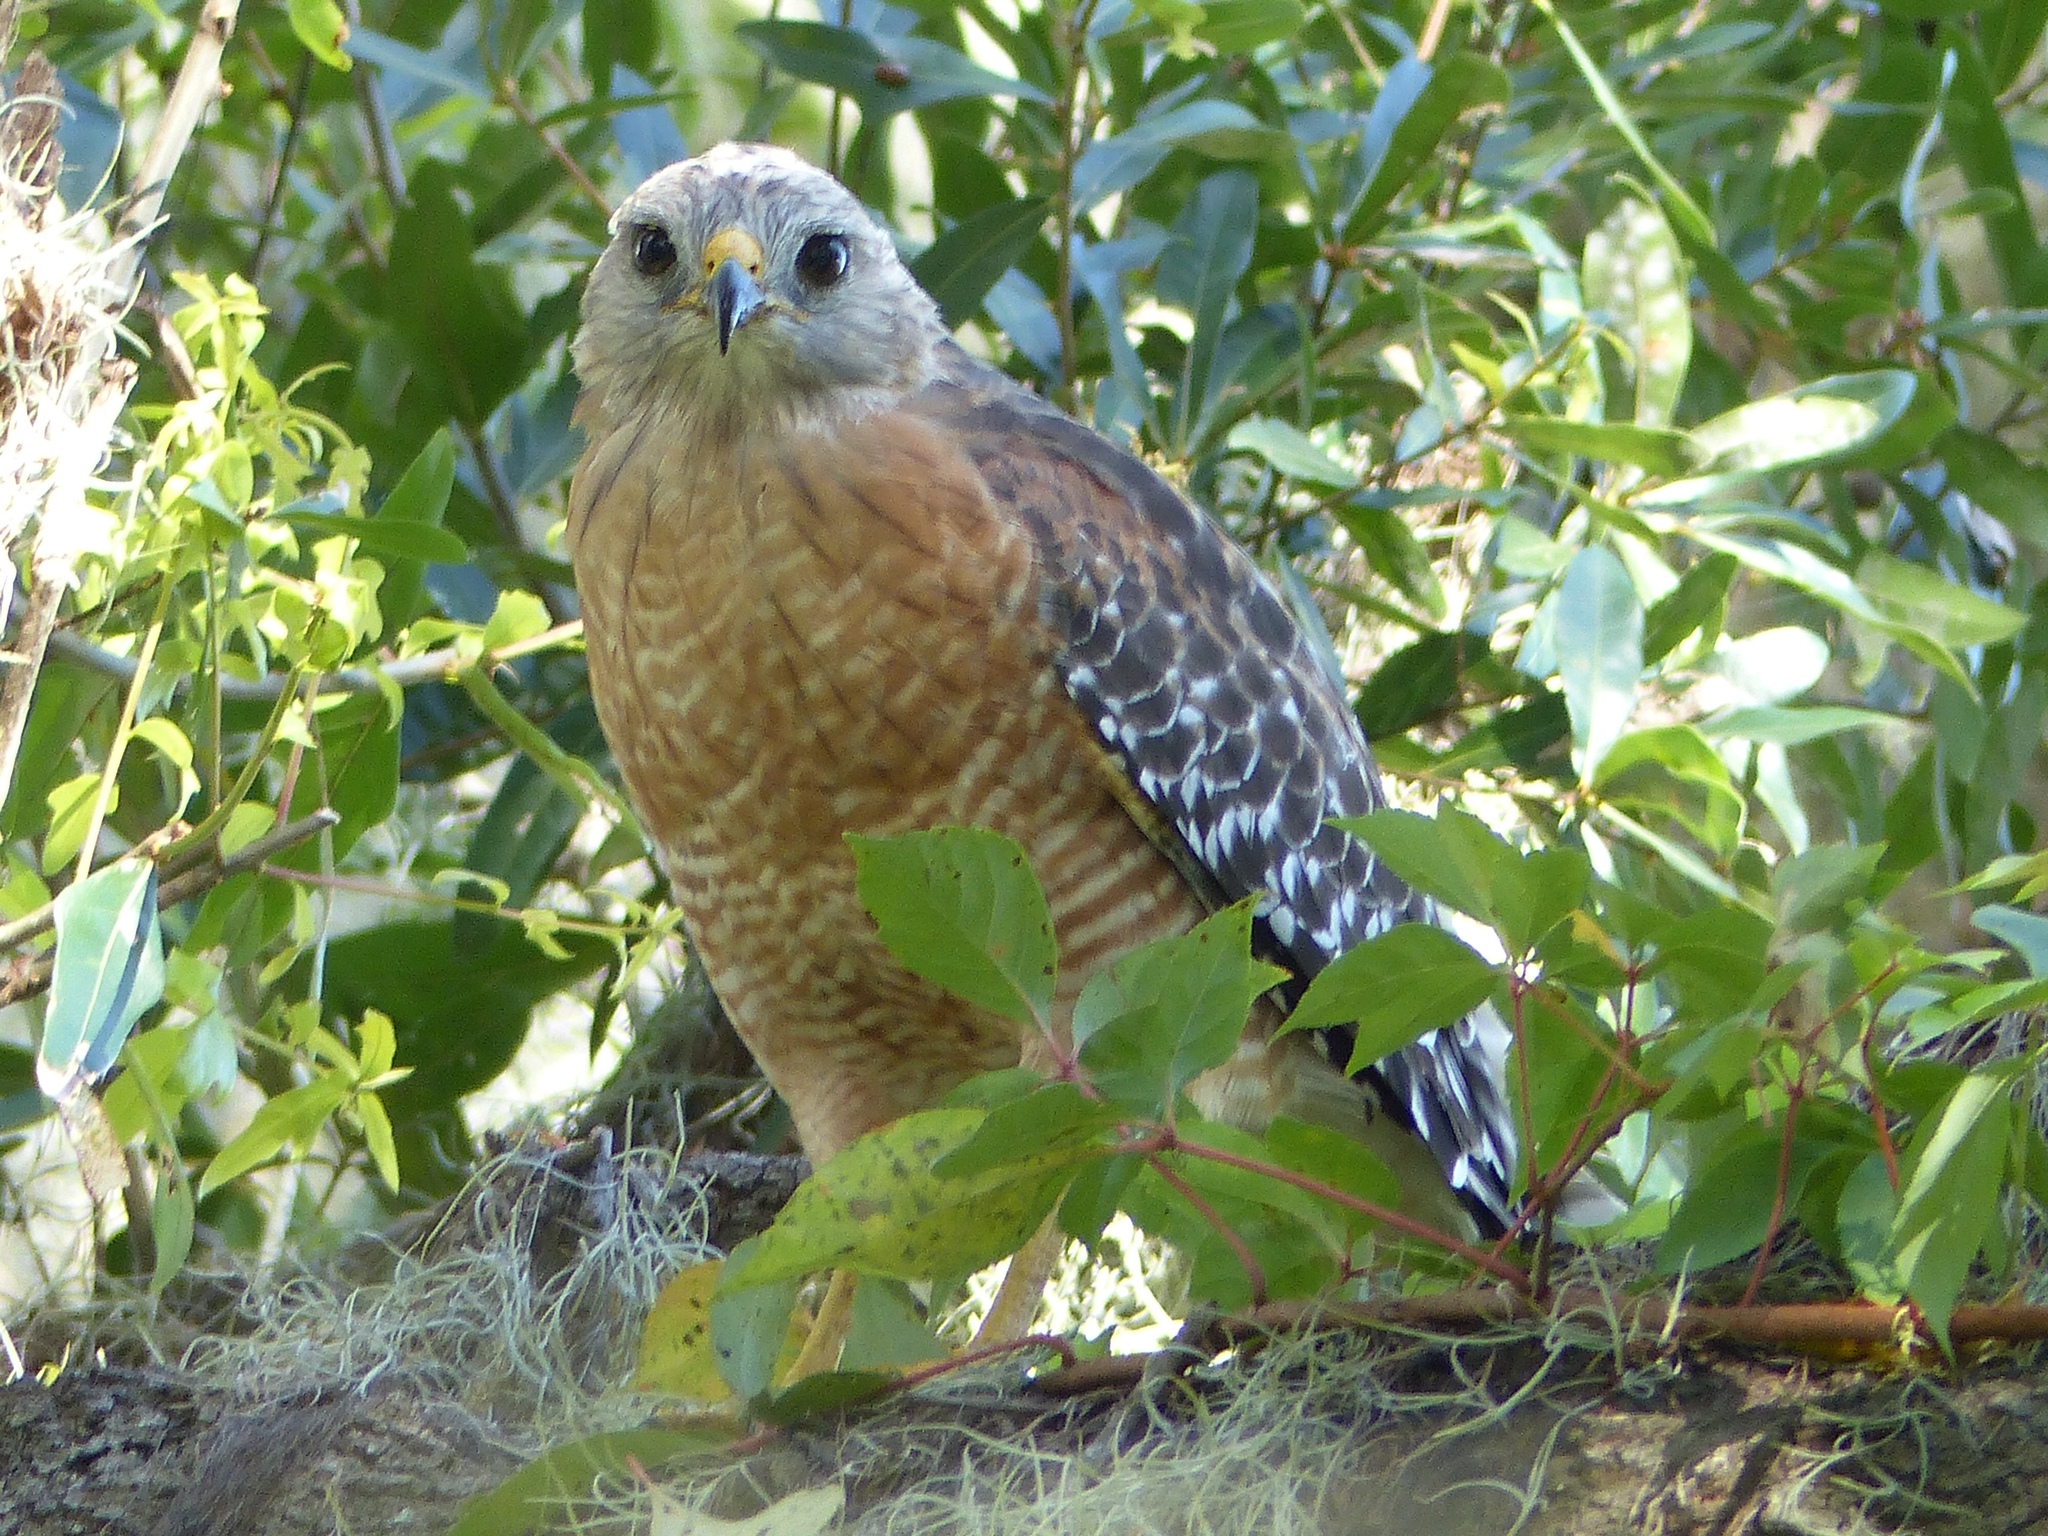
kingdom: Animalia
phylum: Chordata
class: Aves
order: Accipitriformes
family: Accipitridae
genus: Buteo
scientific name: Buteo lineatus
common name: Red-shouldered hawk
